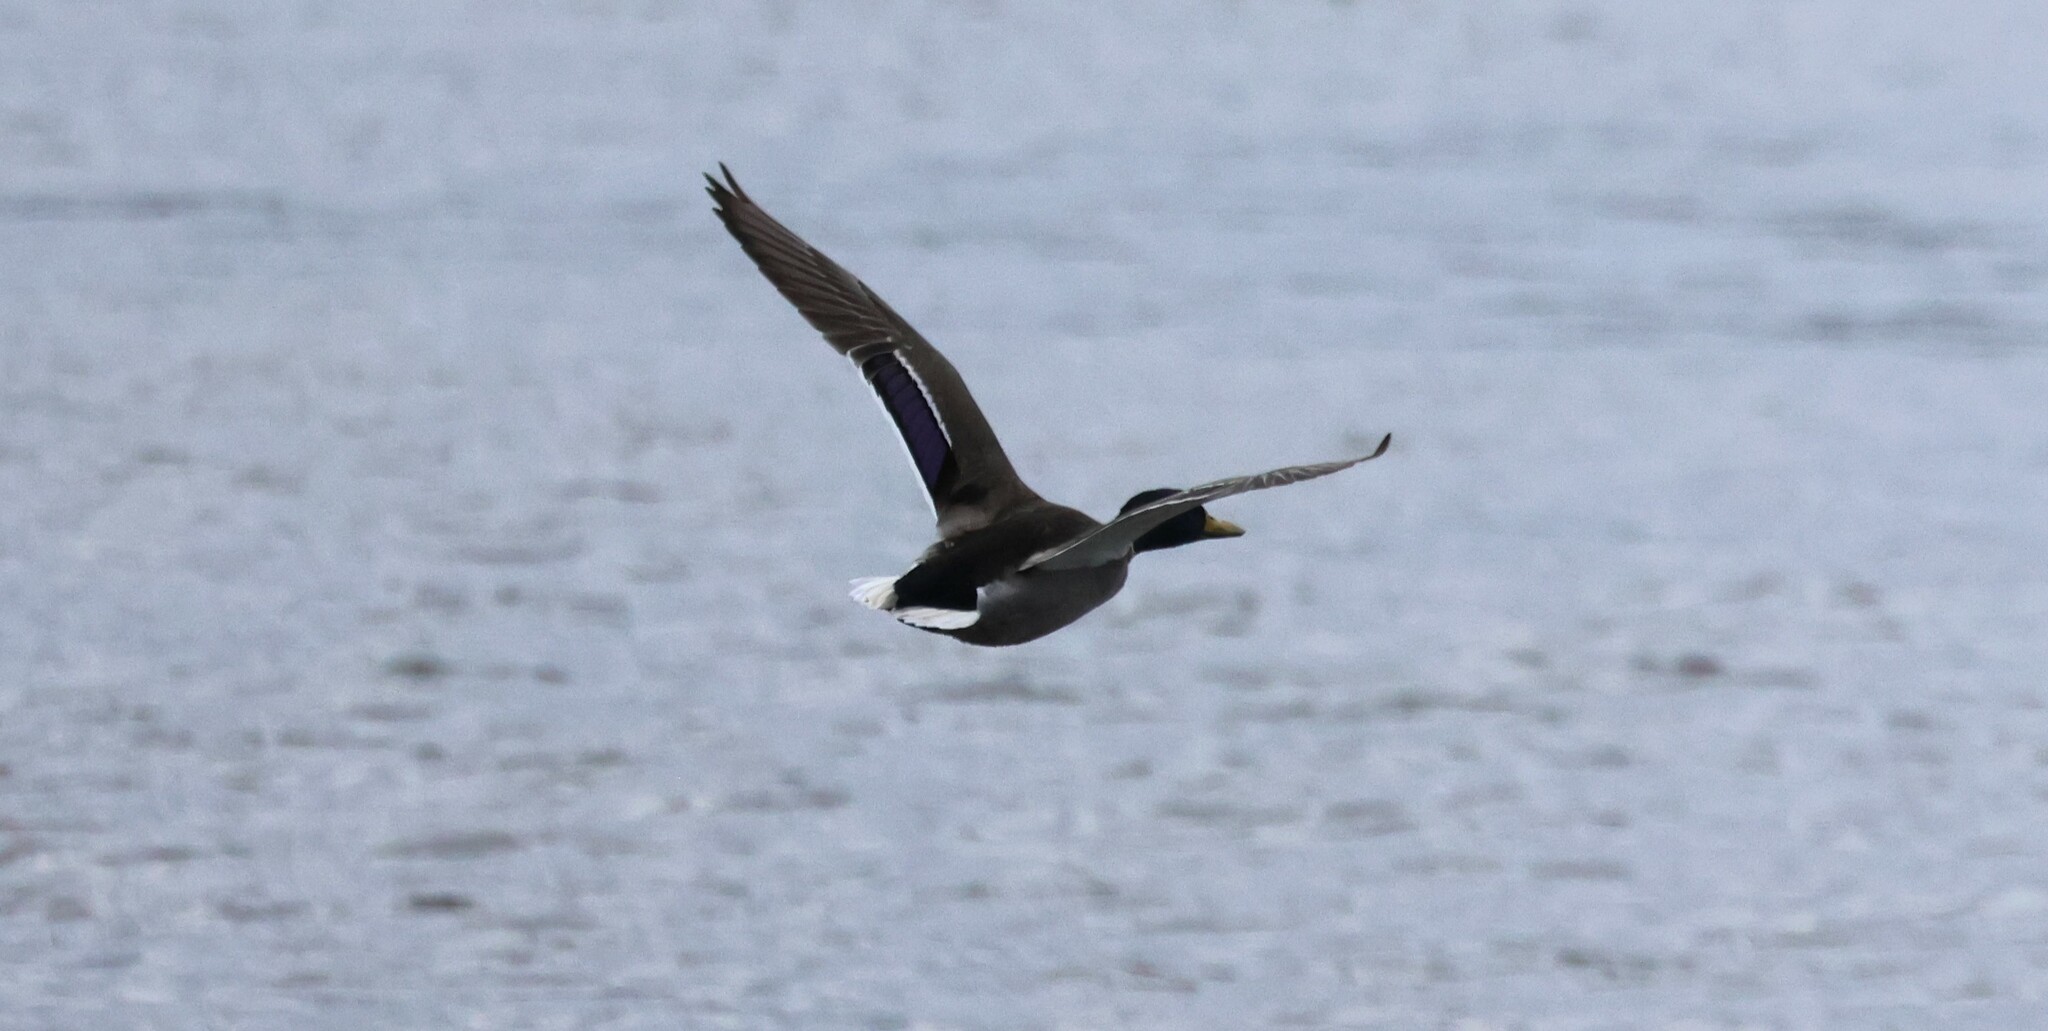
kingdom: Animalia
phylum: Chordata
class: Aves
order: Anseriformes
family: Anatidae
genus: Anas
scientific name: Anas platyrhynchos
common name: Mallard
